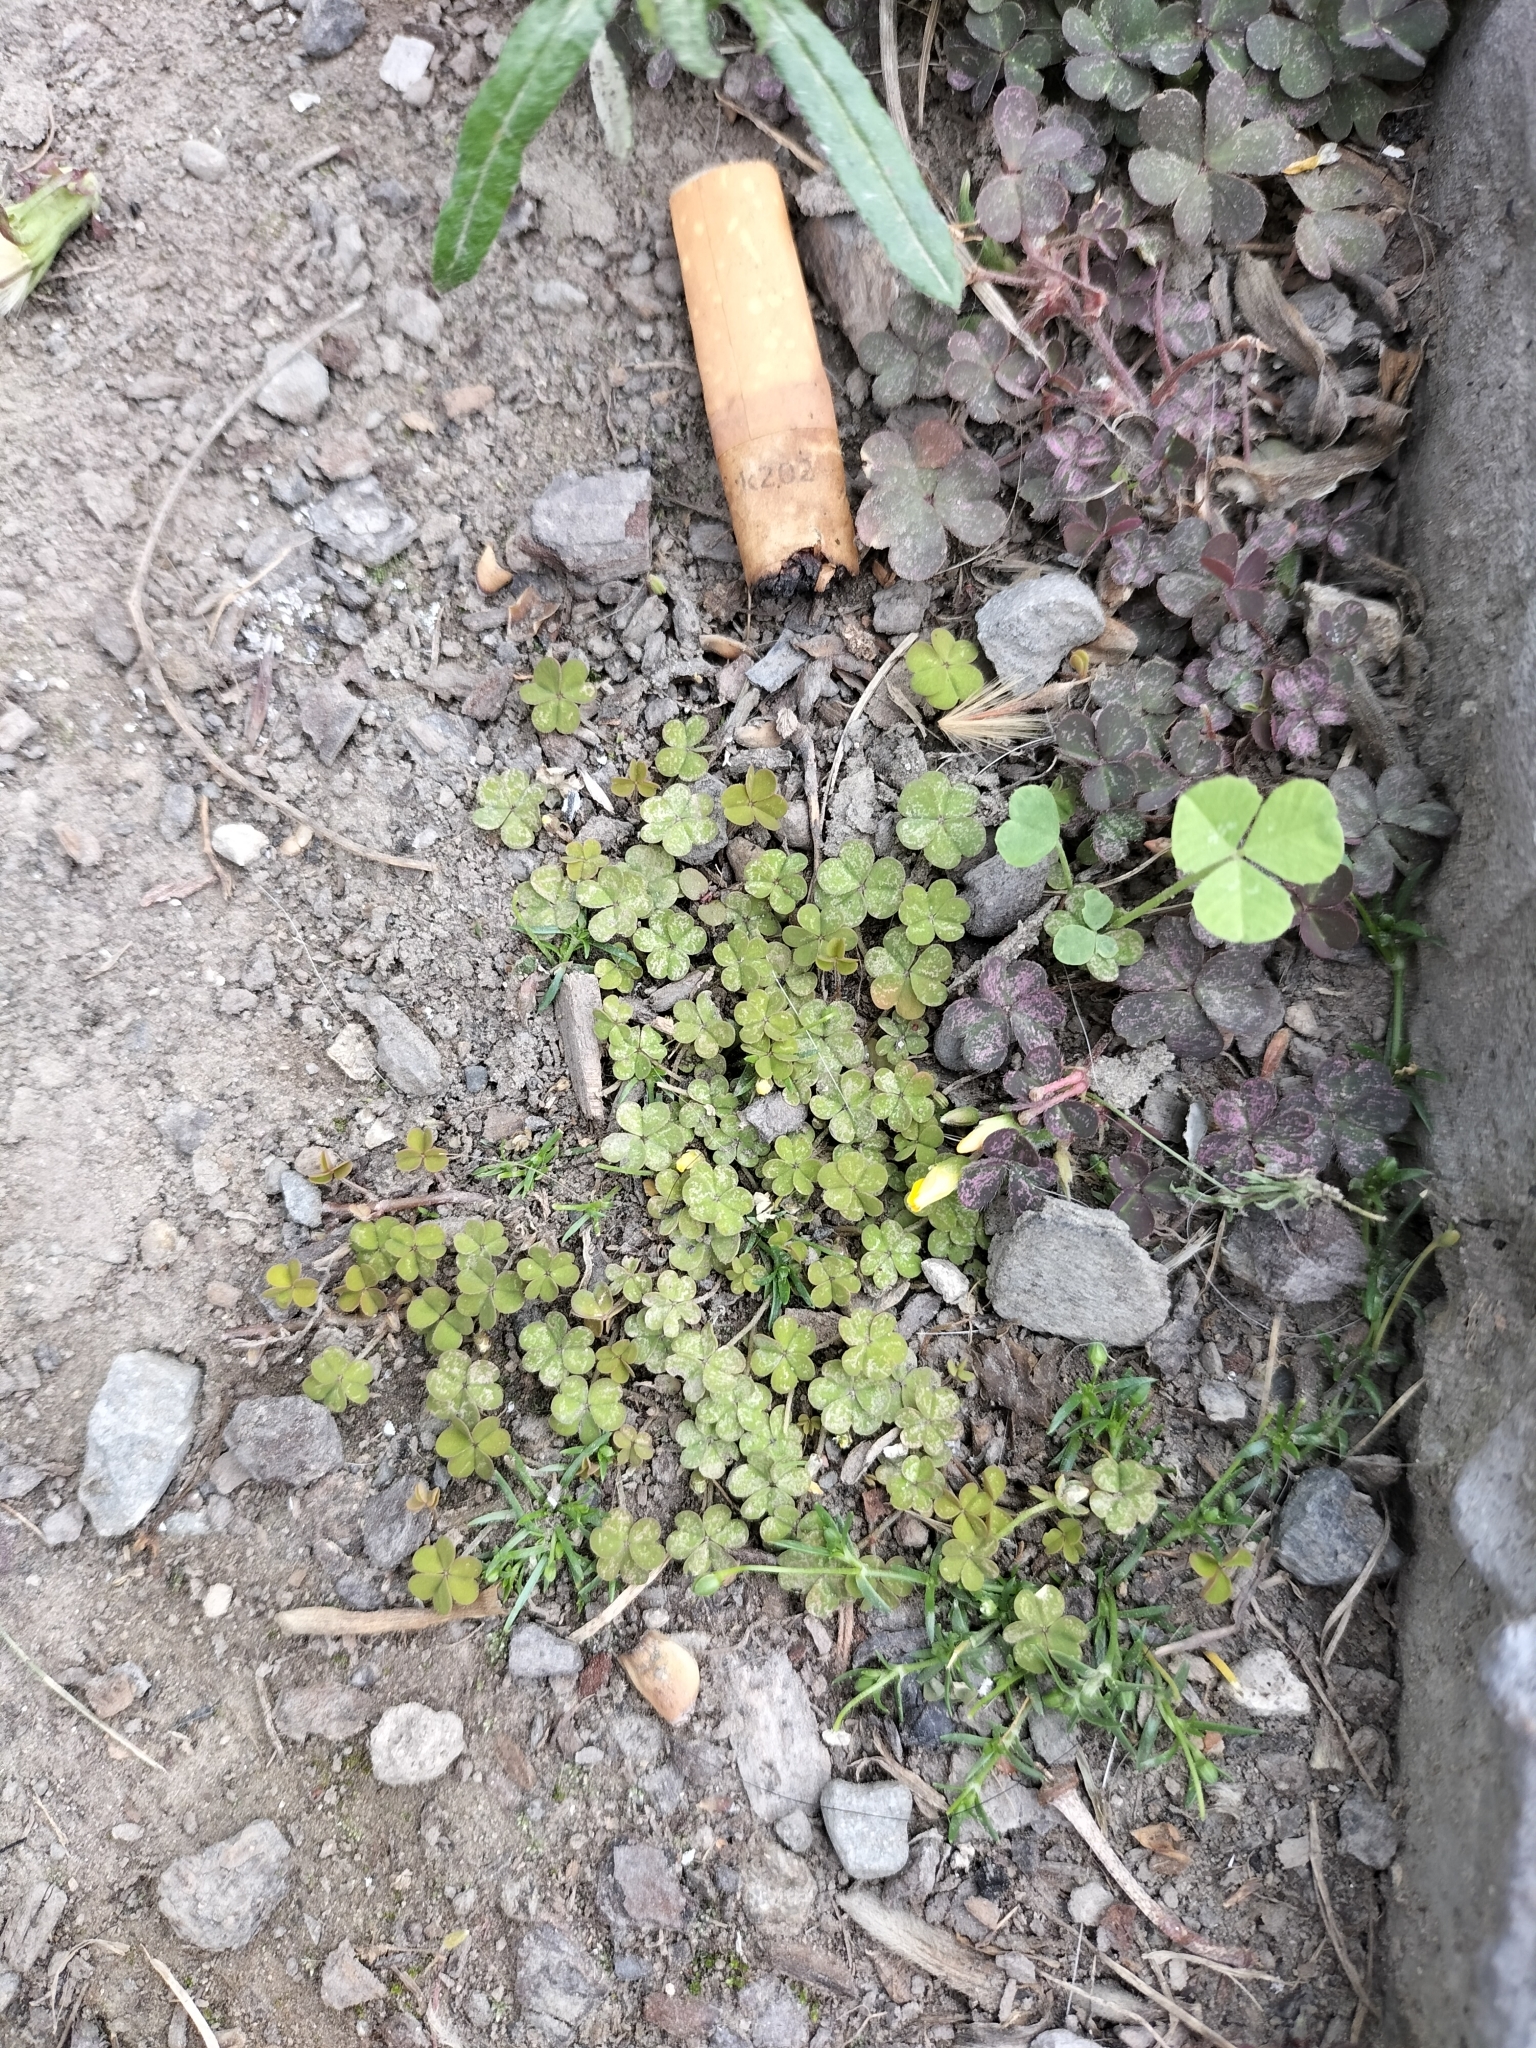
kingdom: Plantae
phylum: Tracheophyta
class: Magnoliopsida
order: Oxalidales
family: Oxalidaceae
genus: Oxalis
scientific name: Oxalis exilis
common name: Least yellow-sorrel
